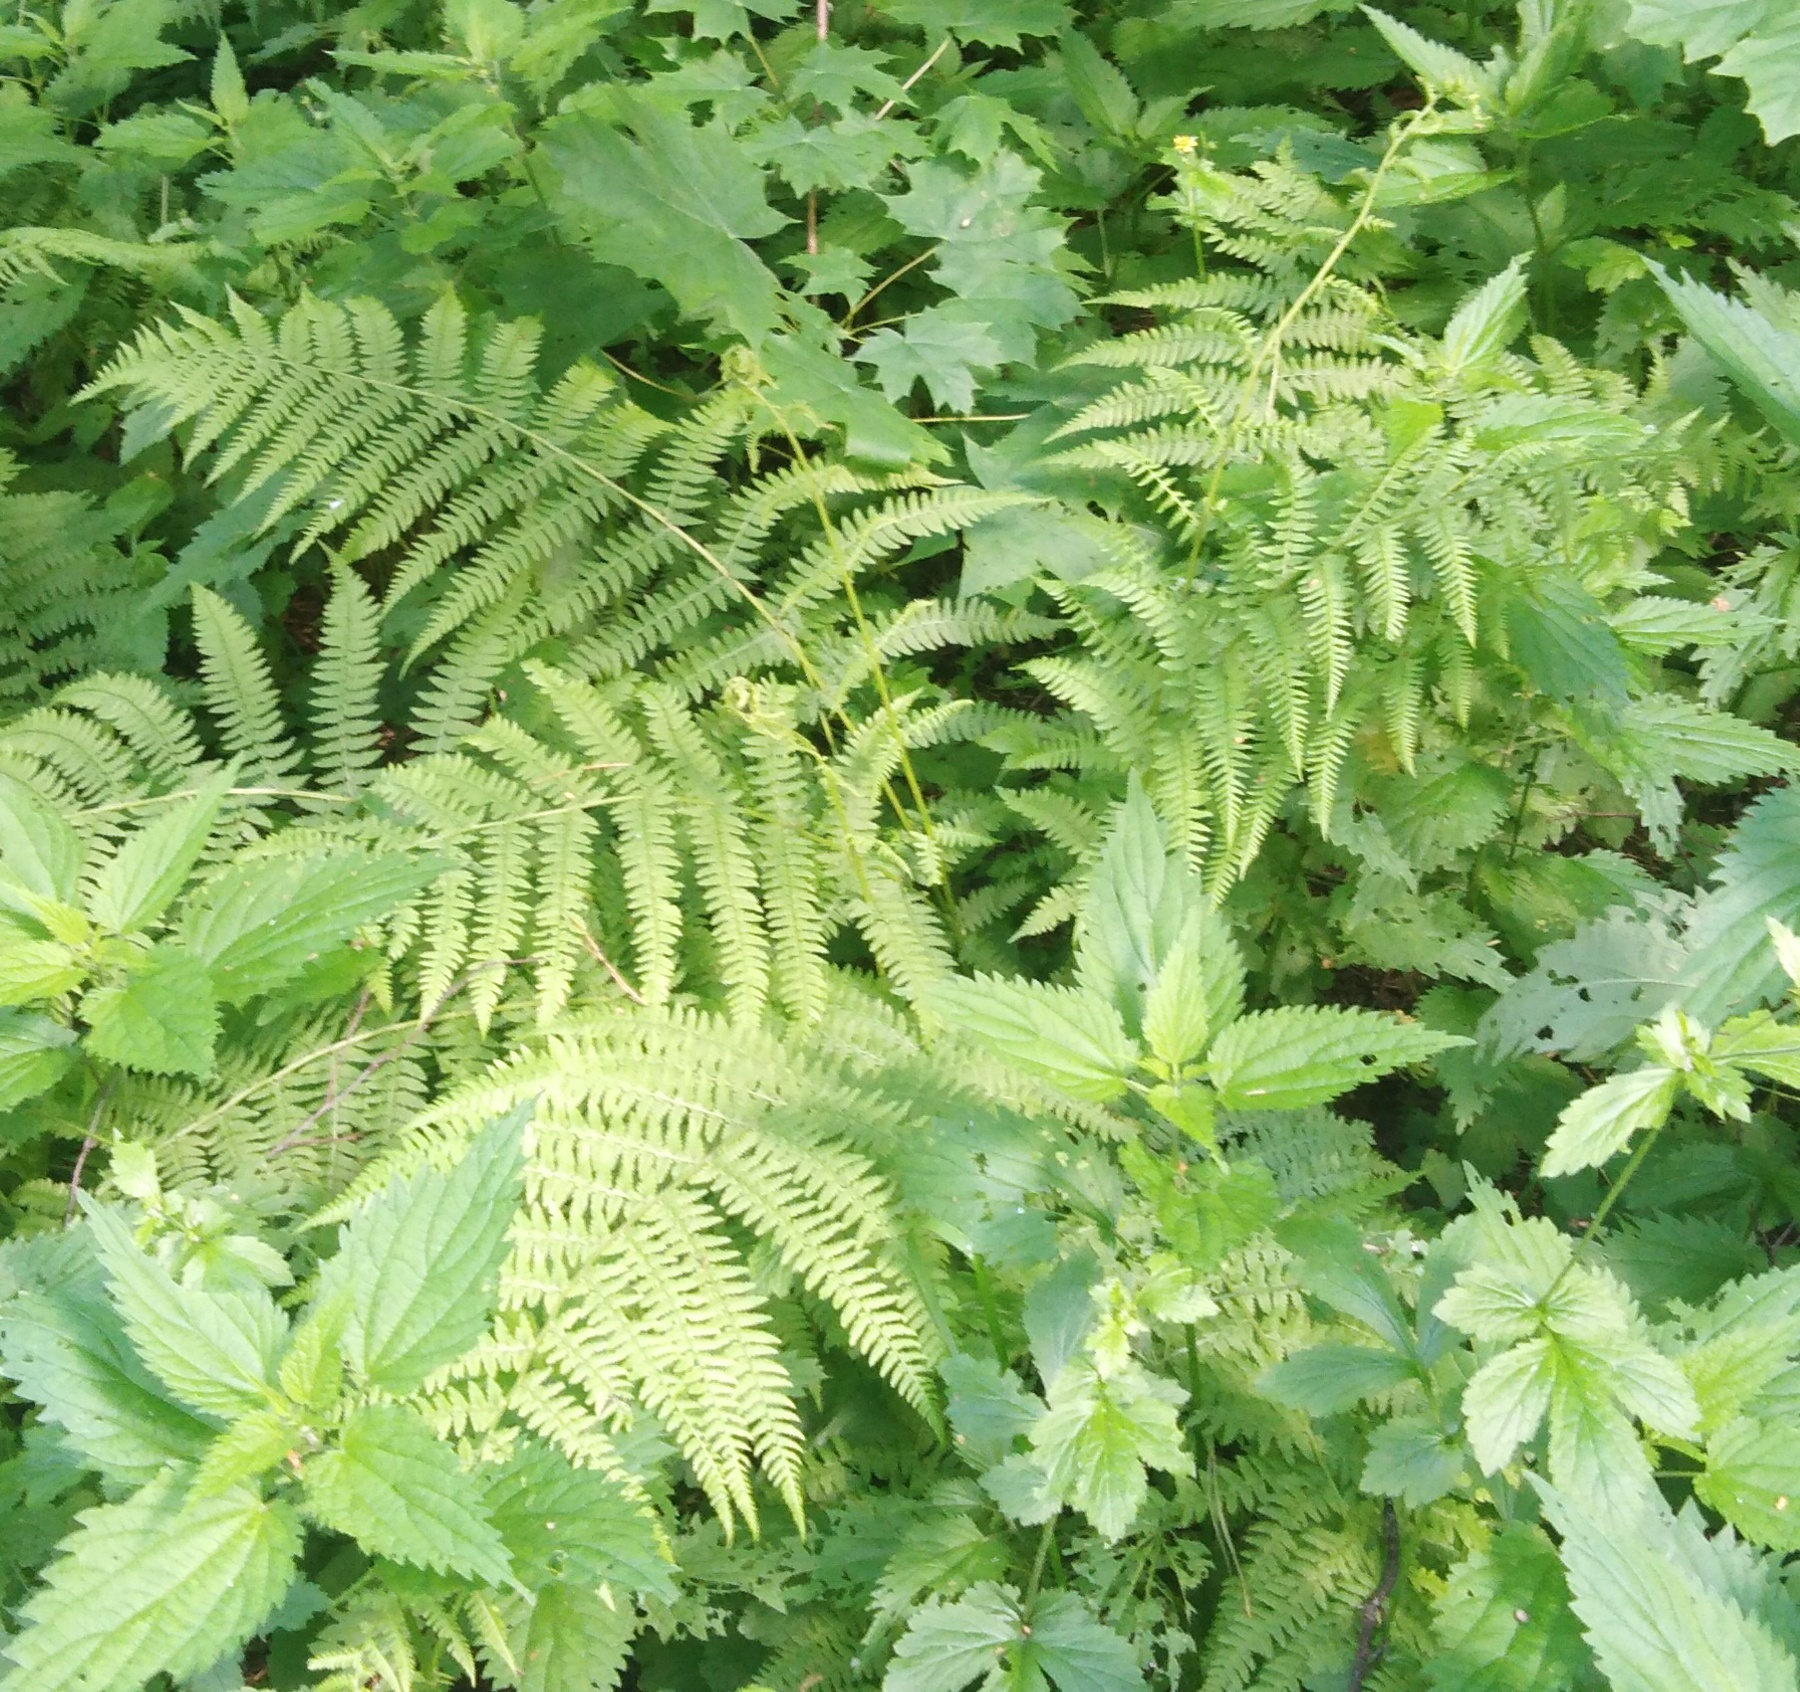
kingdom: Plantae
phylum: Tracheophyta
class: Polypodiopsida
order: Polypodiales
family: Athyriaceae
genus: Athyrium
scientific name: Athyrium filix-femina
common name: Lady fern
